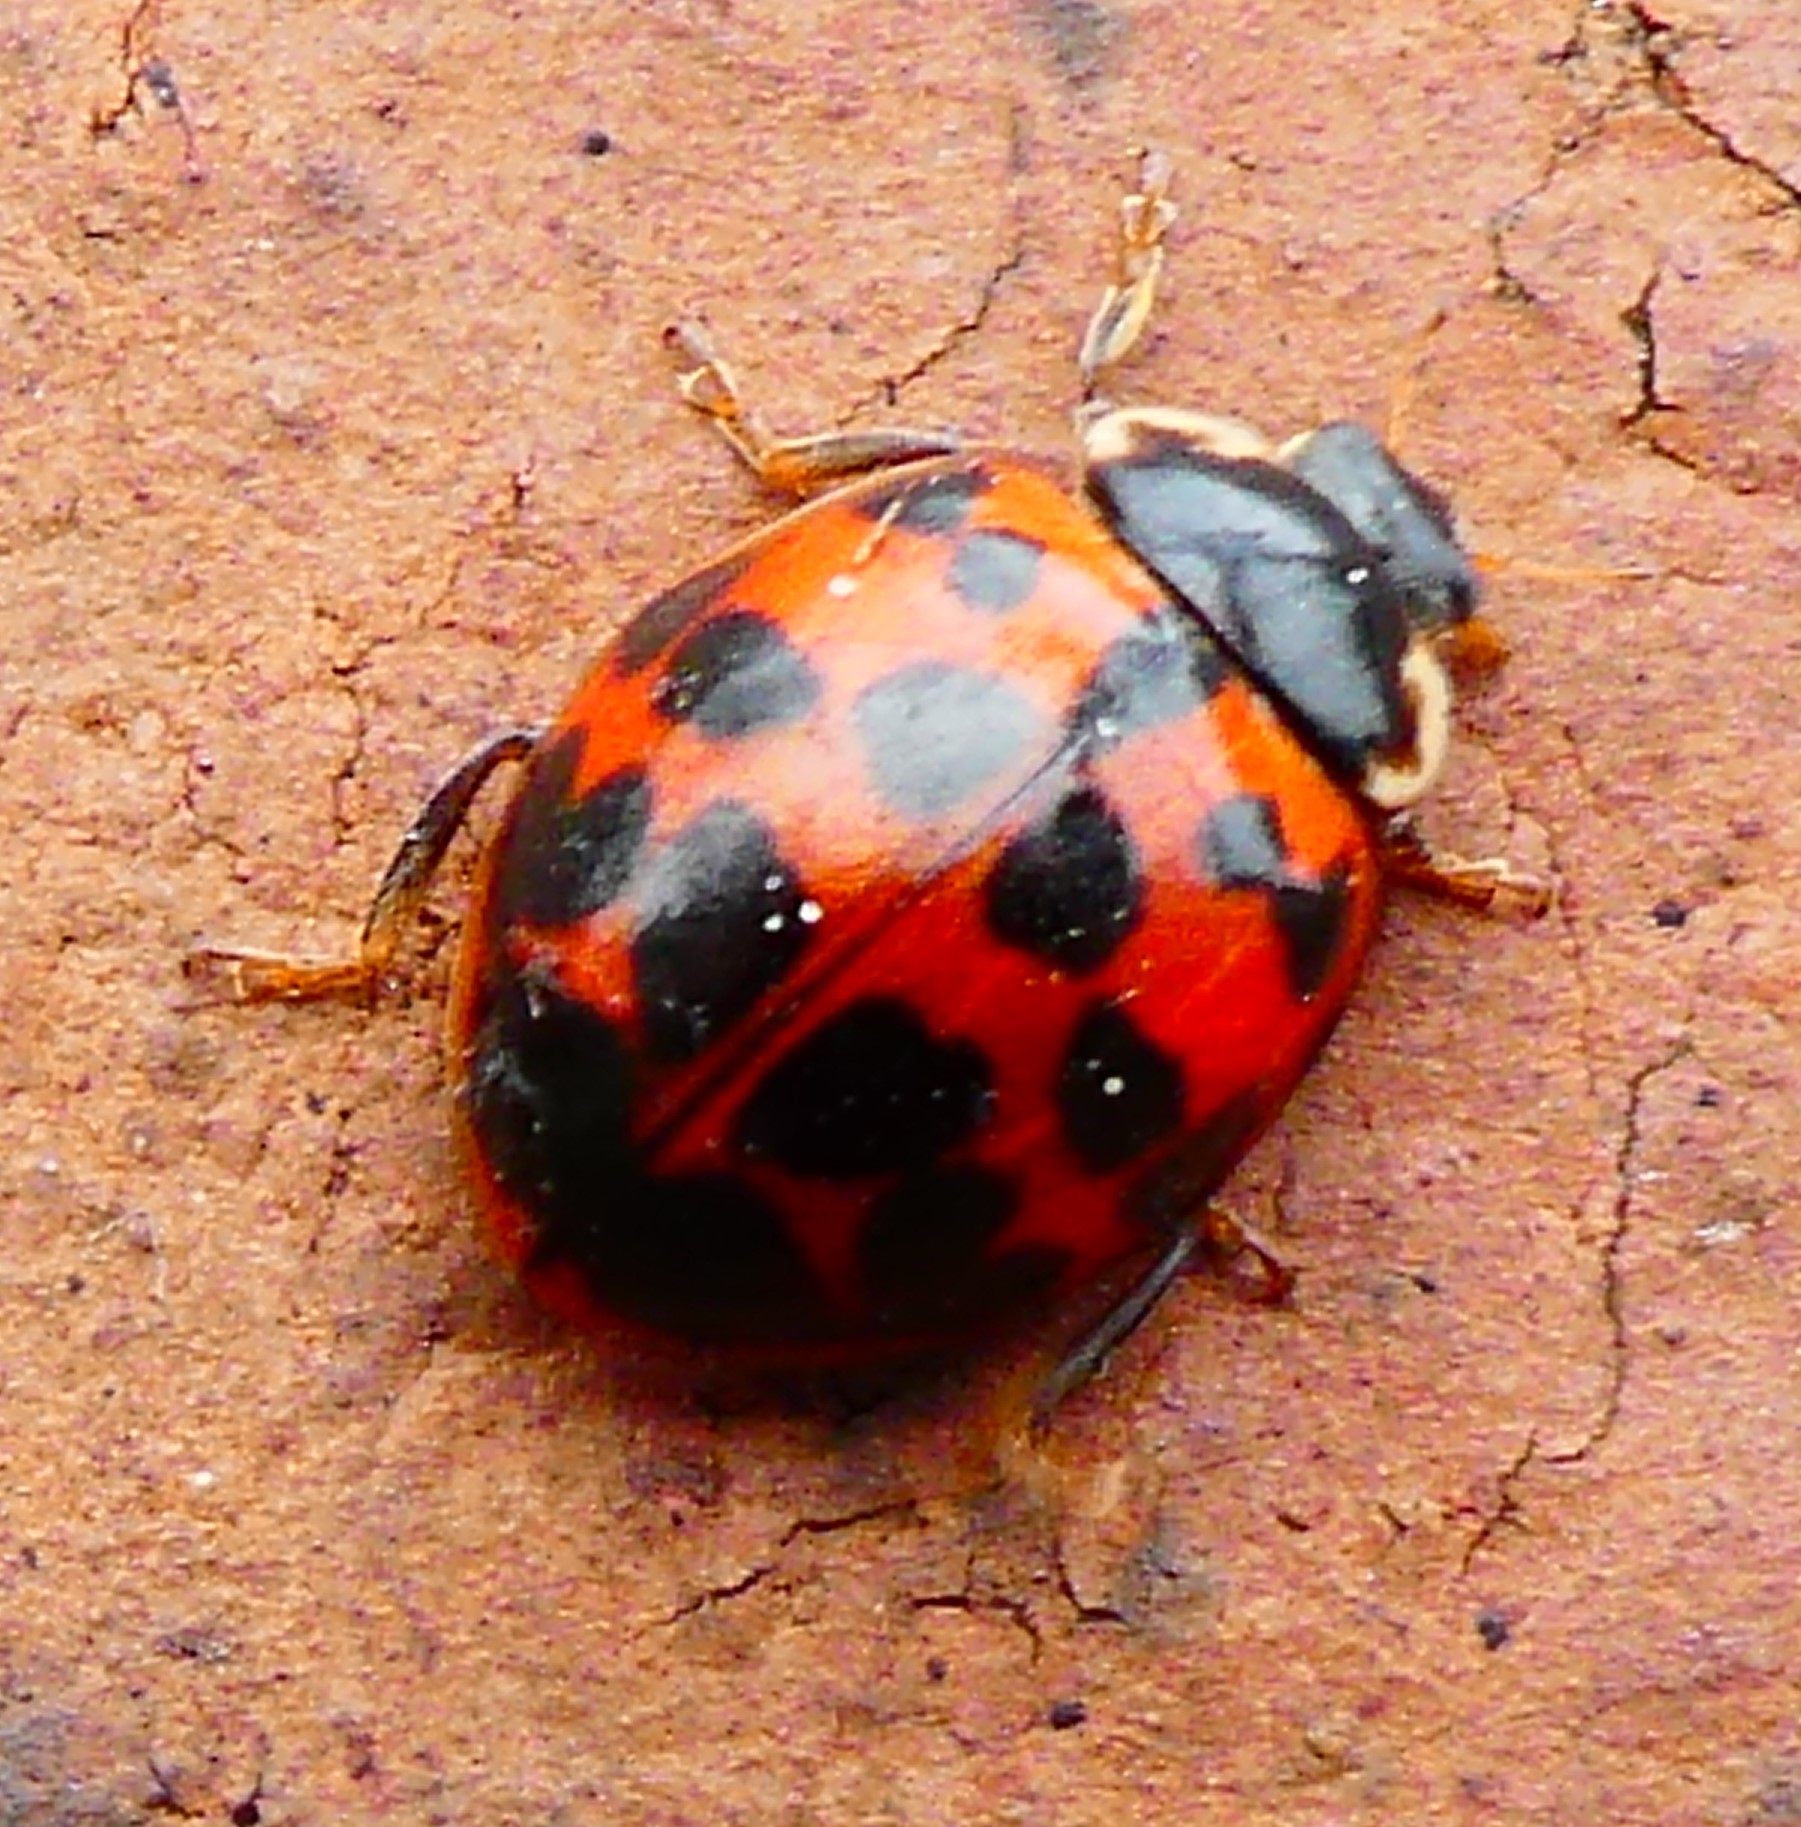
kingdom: Animalia
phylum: Arthropoda
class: Insecta
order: Coleoptera
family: Coccinellidae
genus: Harmonia
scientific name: Harmonia axyridis
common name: Harlequin ladybird
